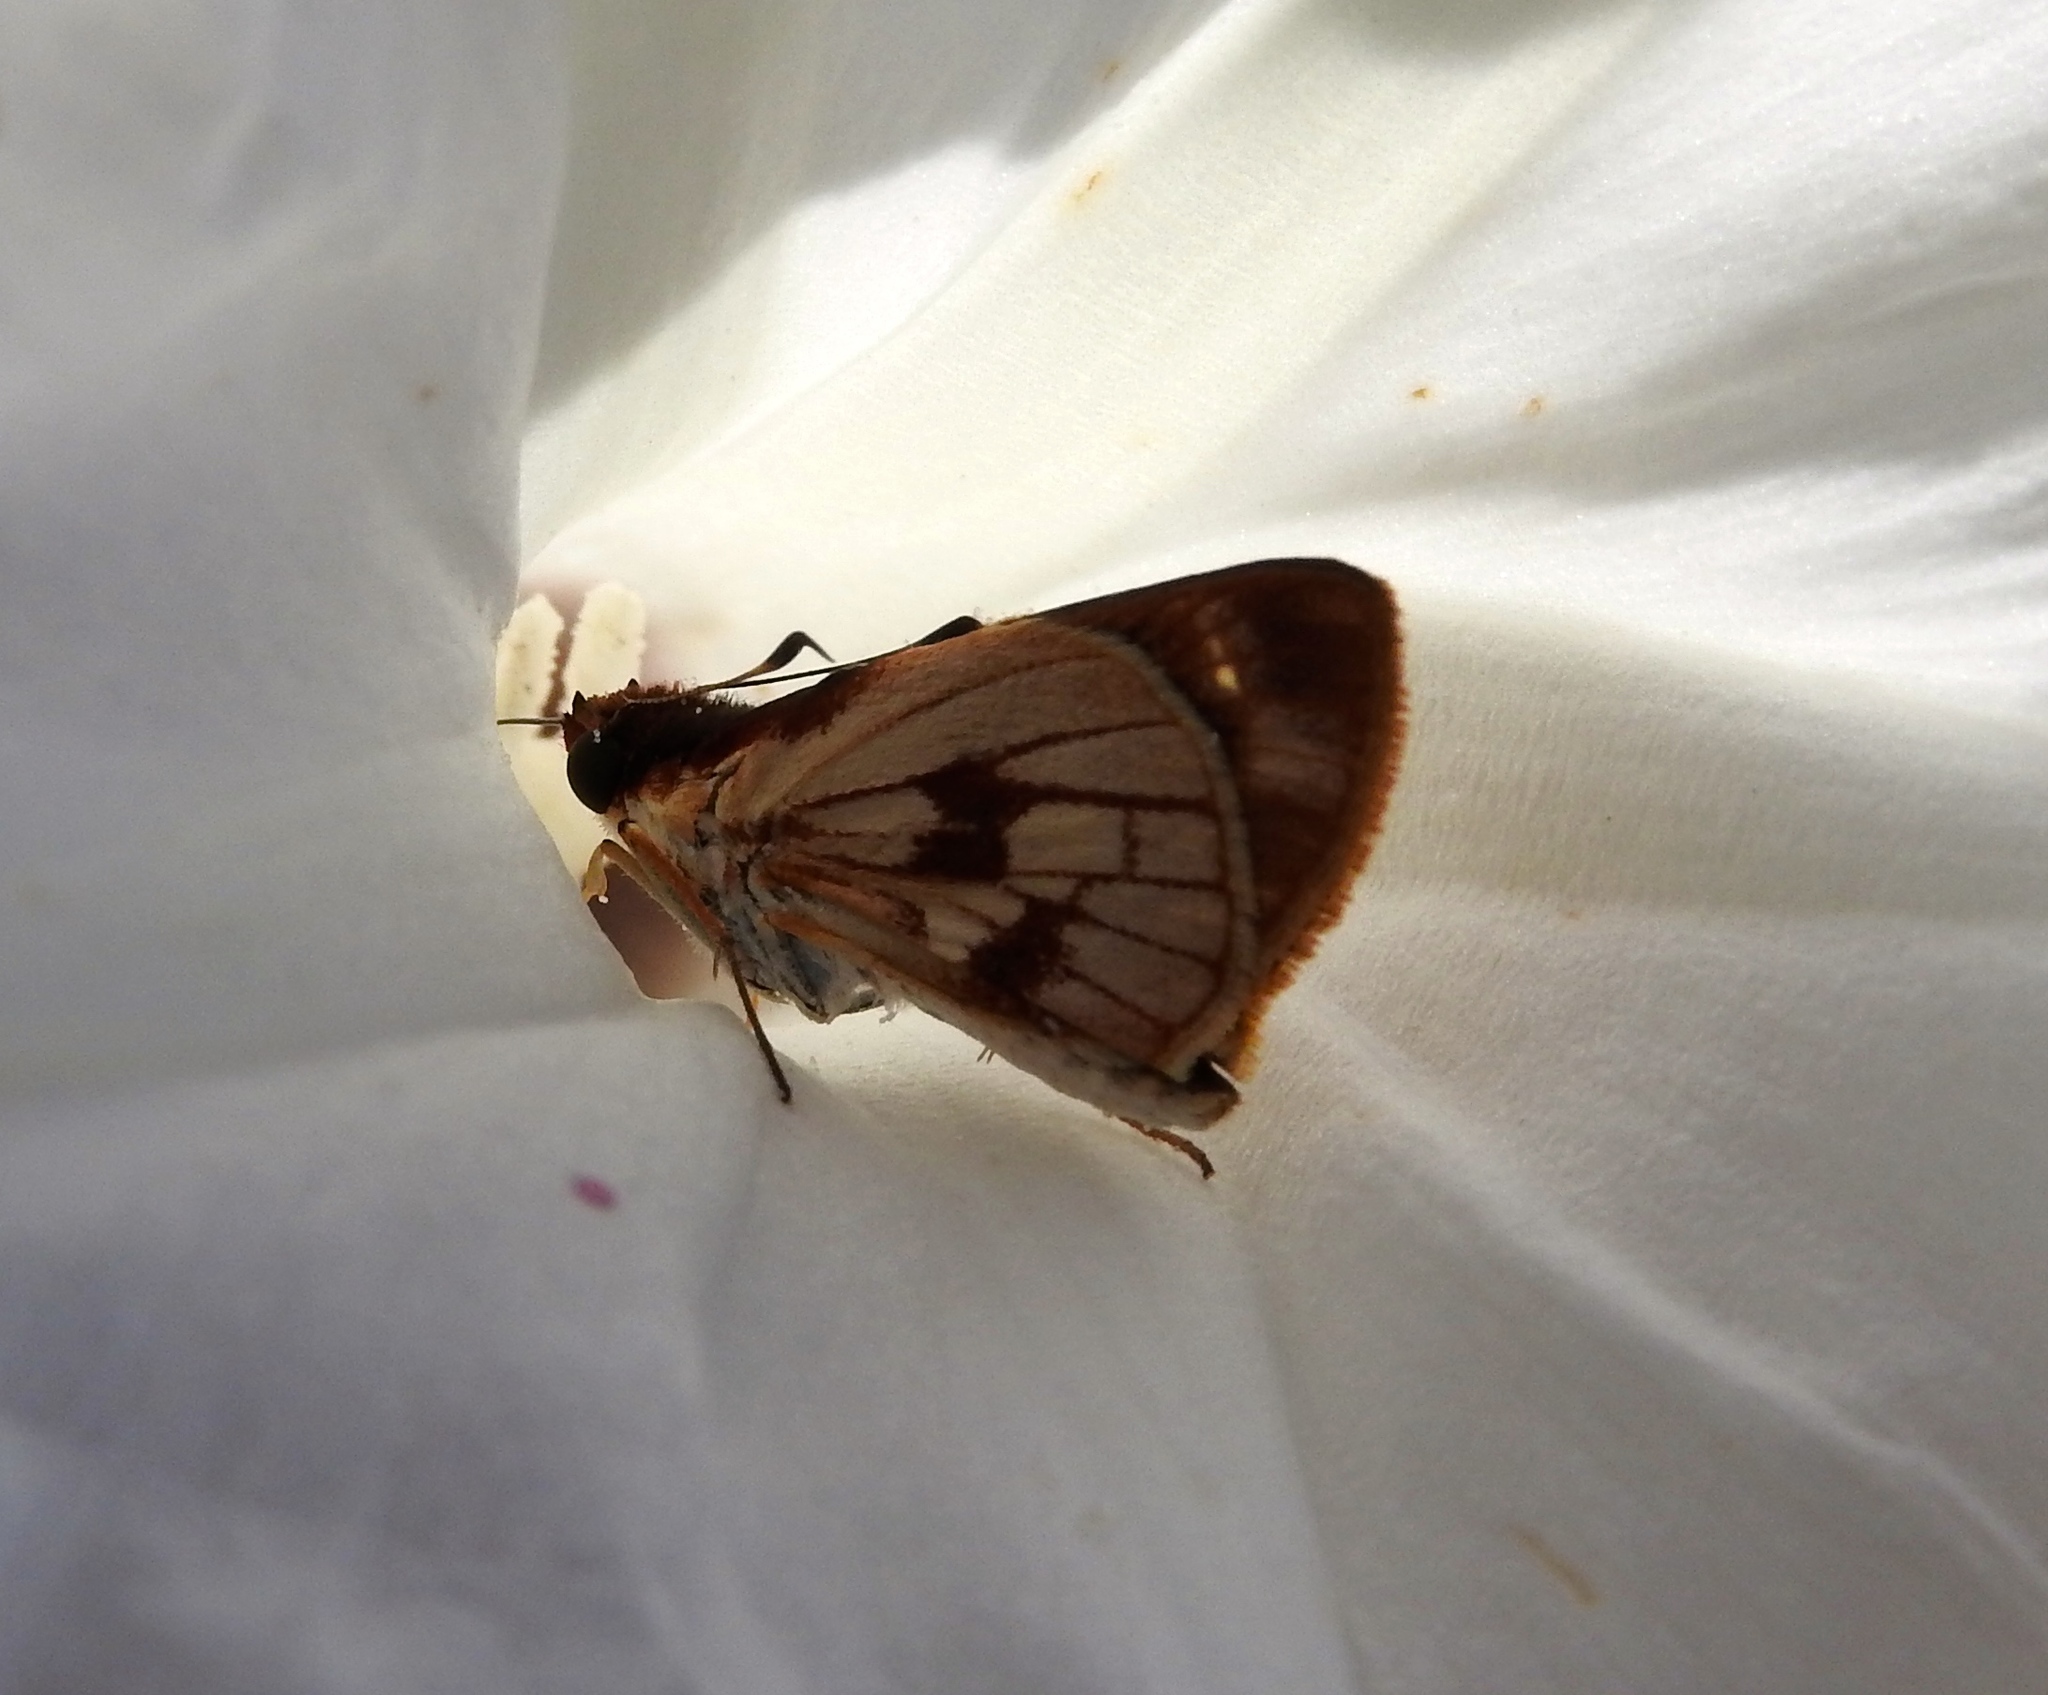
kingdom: Animalia
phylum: Arthropoda
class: Insecta
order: Lepidoptera
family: Hesperiidae
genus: Troyus
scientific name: Troyus fantasos
